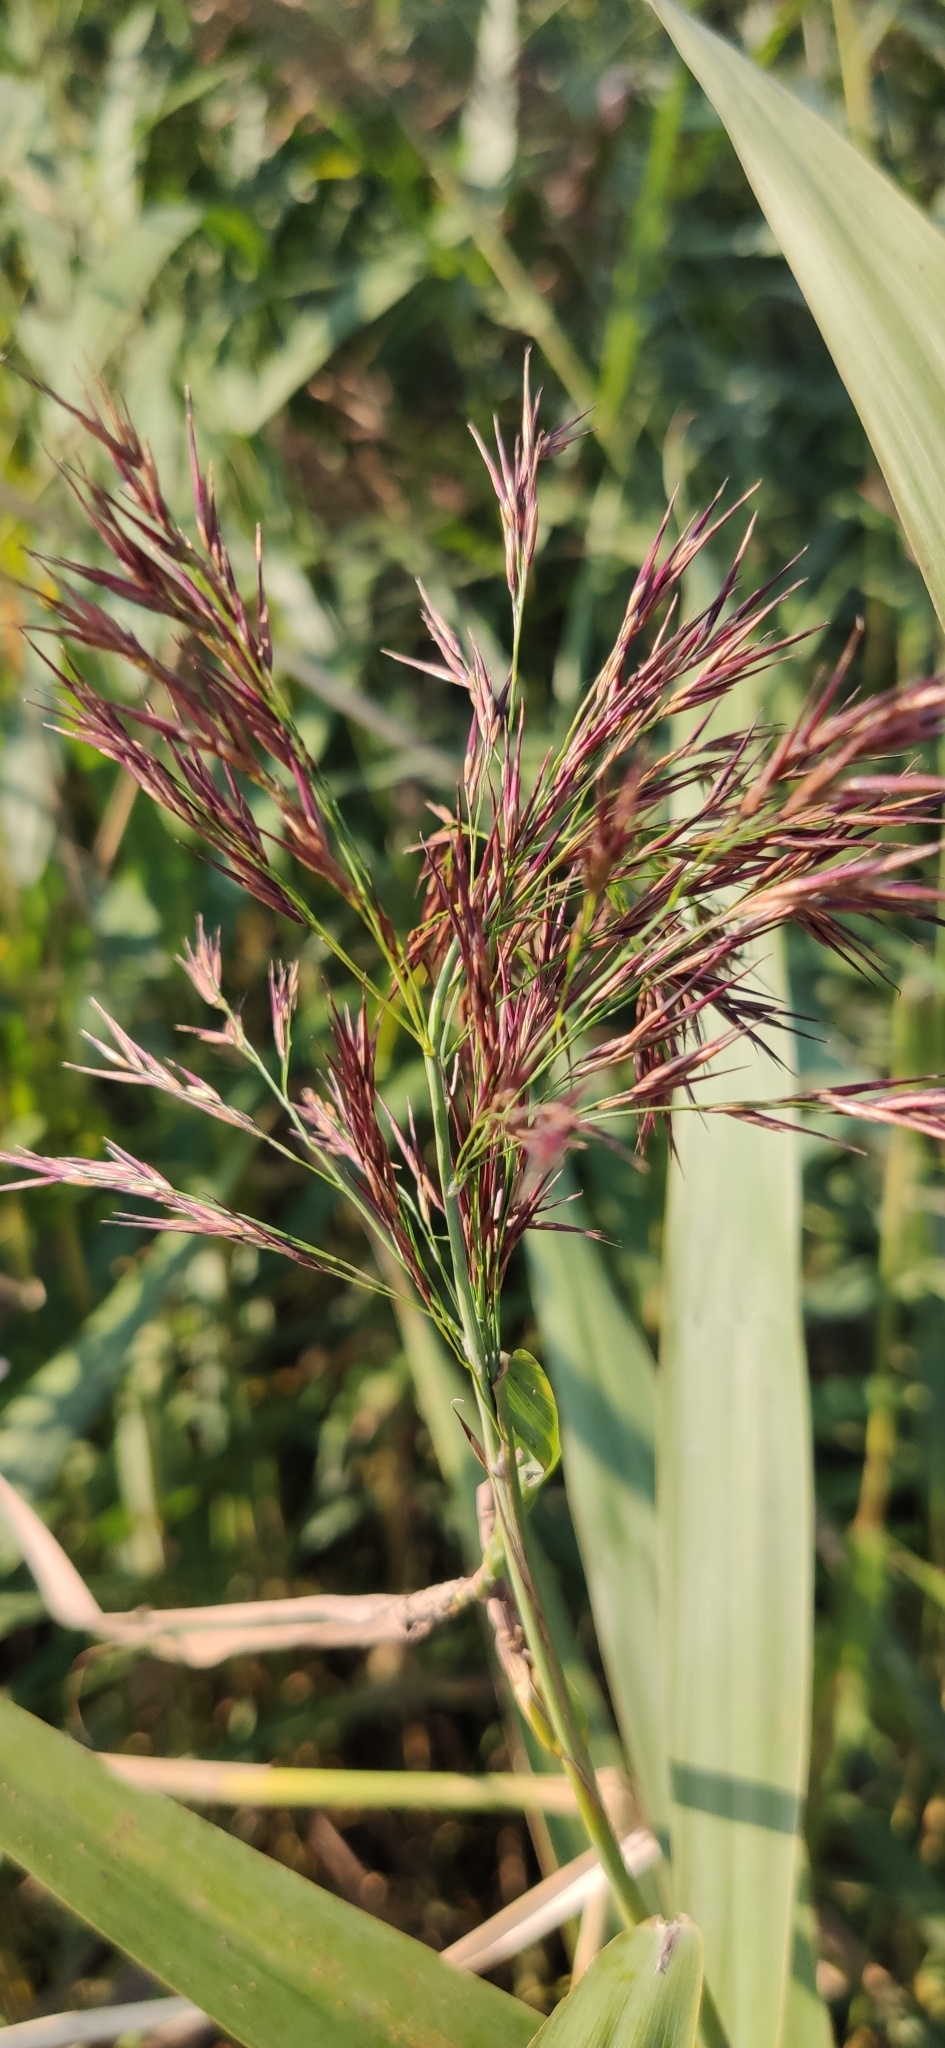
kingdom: Plantae
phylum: Tracheophyta
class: Liliopsida
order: Poales
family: Poaceae
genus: Phragmites
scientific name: Phragmites australis
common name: Common reed
